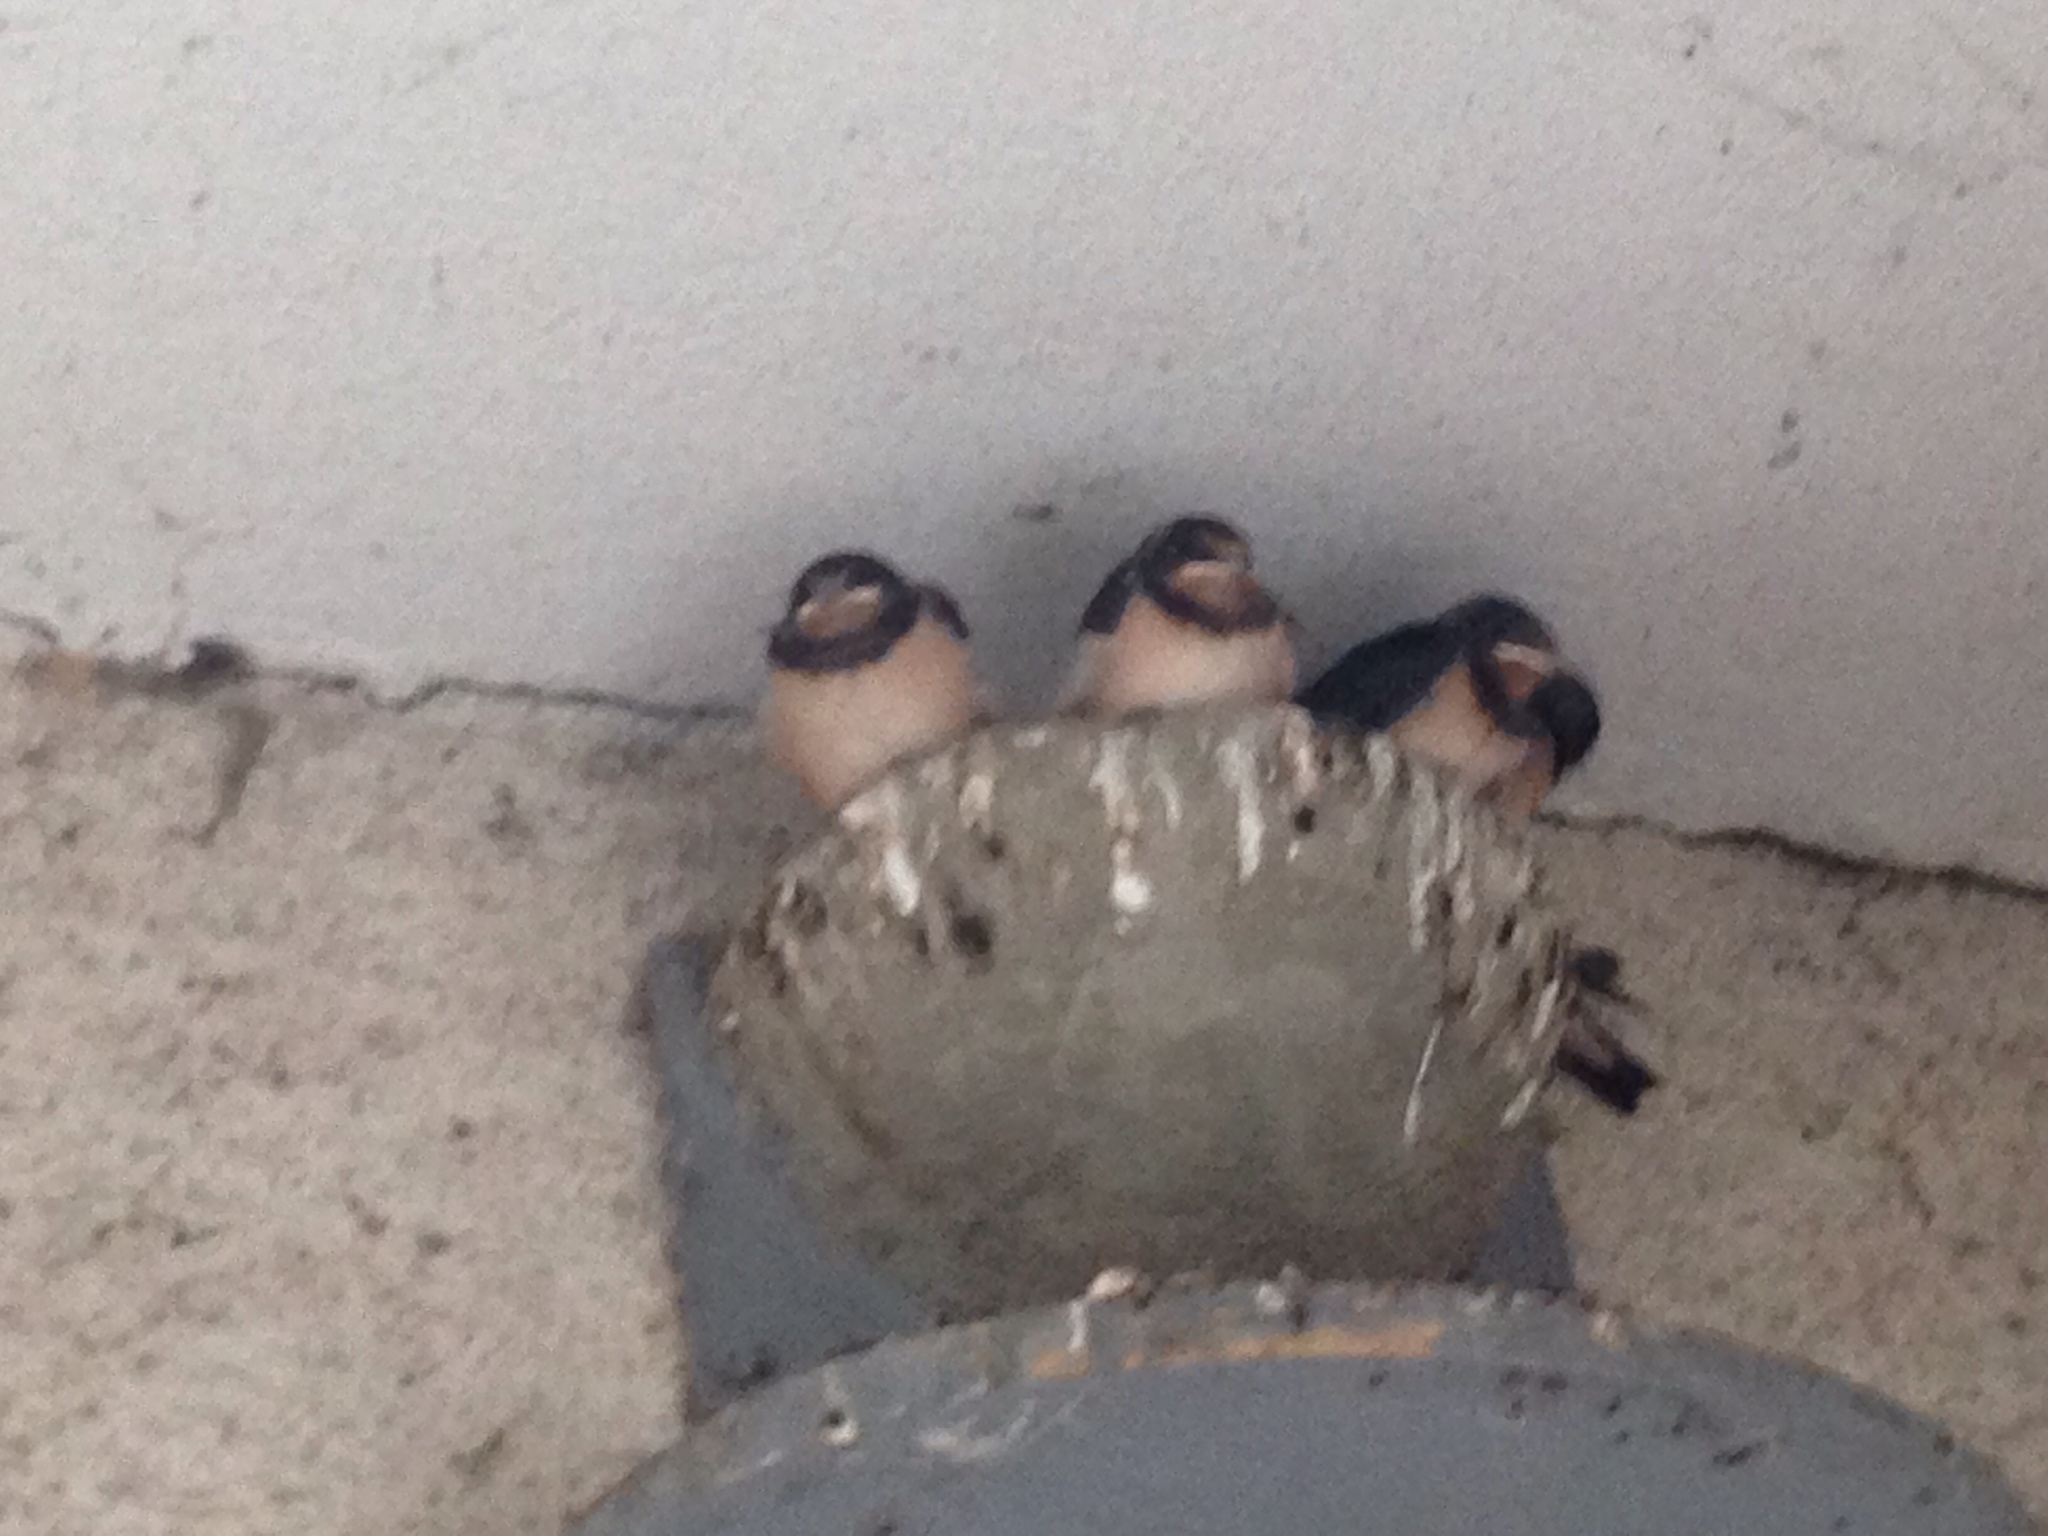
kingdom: Animalia
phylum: Chordata
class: Aves
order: Passeriformes
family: Hirundinidae
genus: Hirundo
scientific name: Hirundo rustica
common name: Barn swallow
